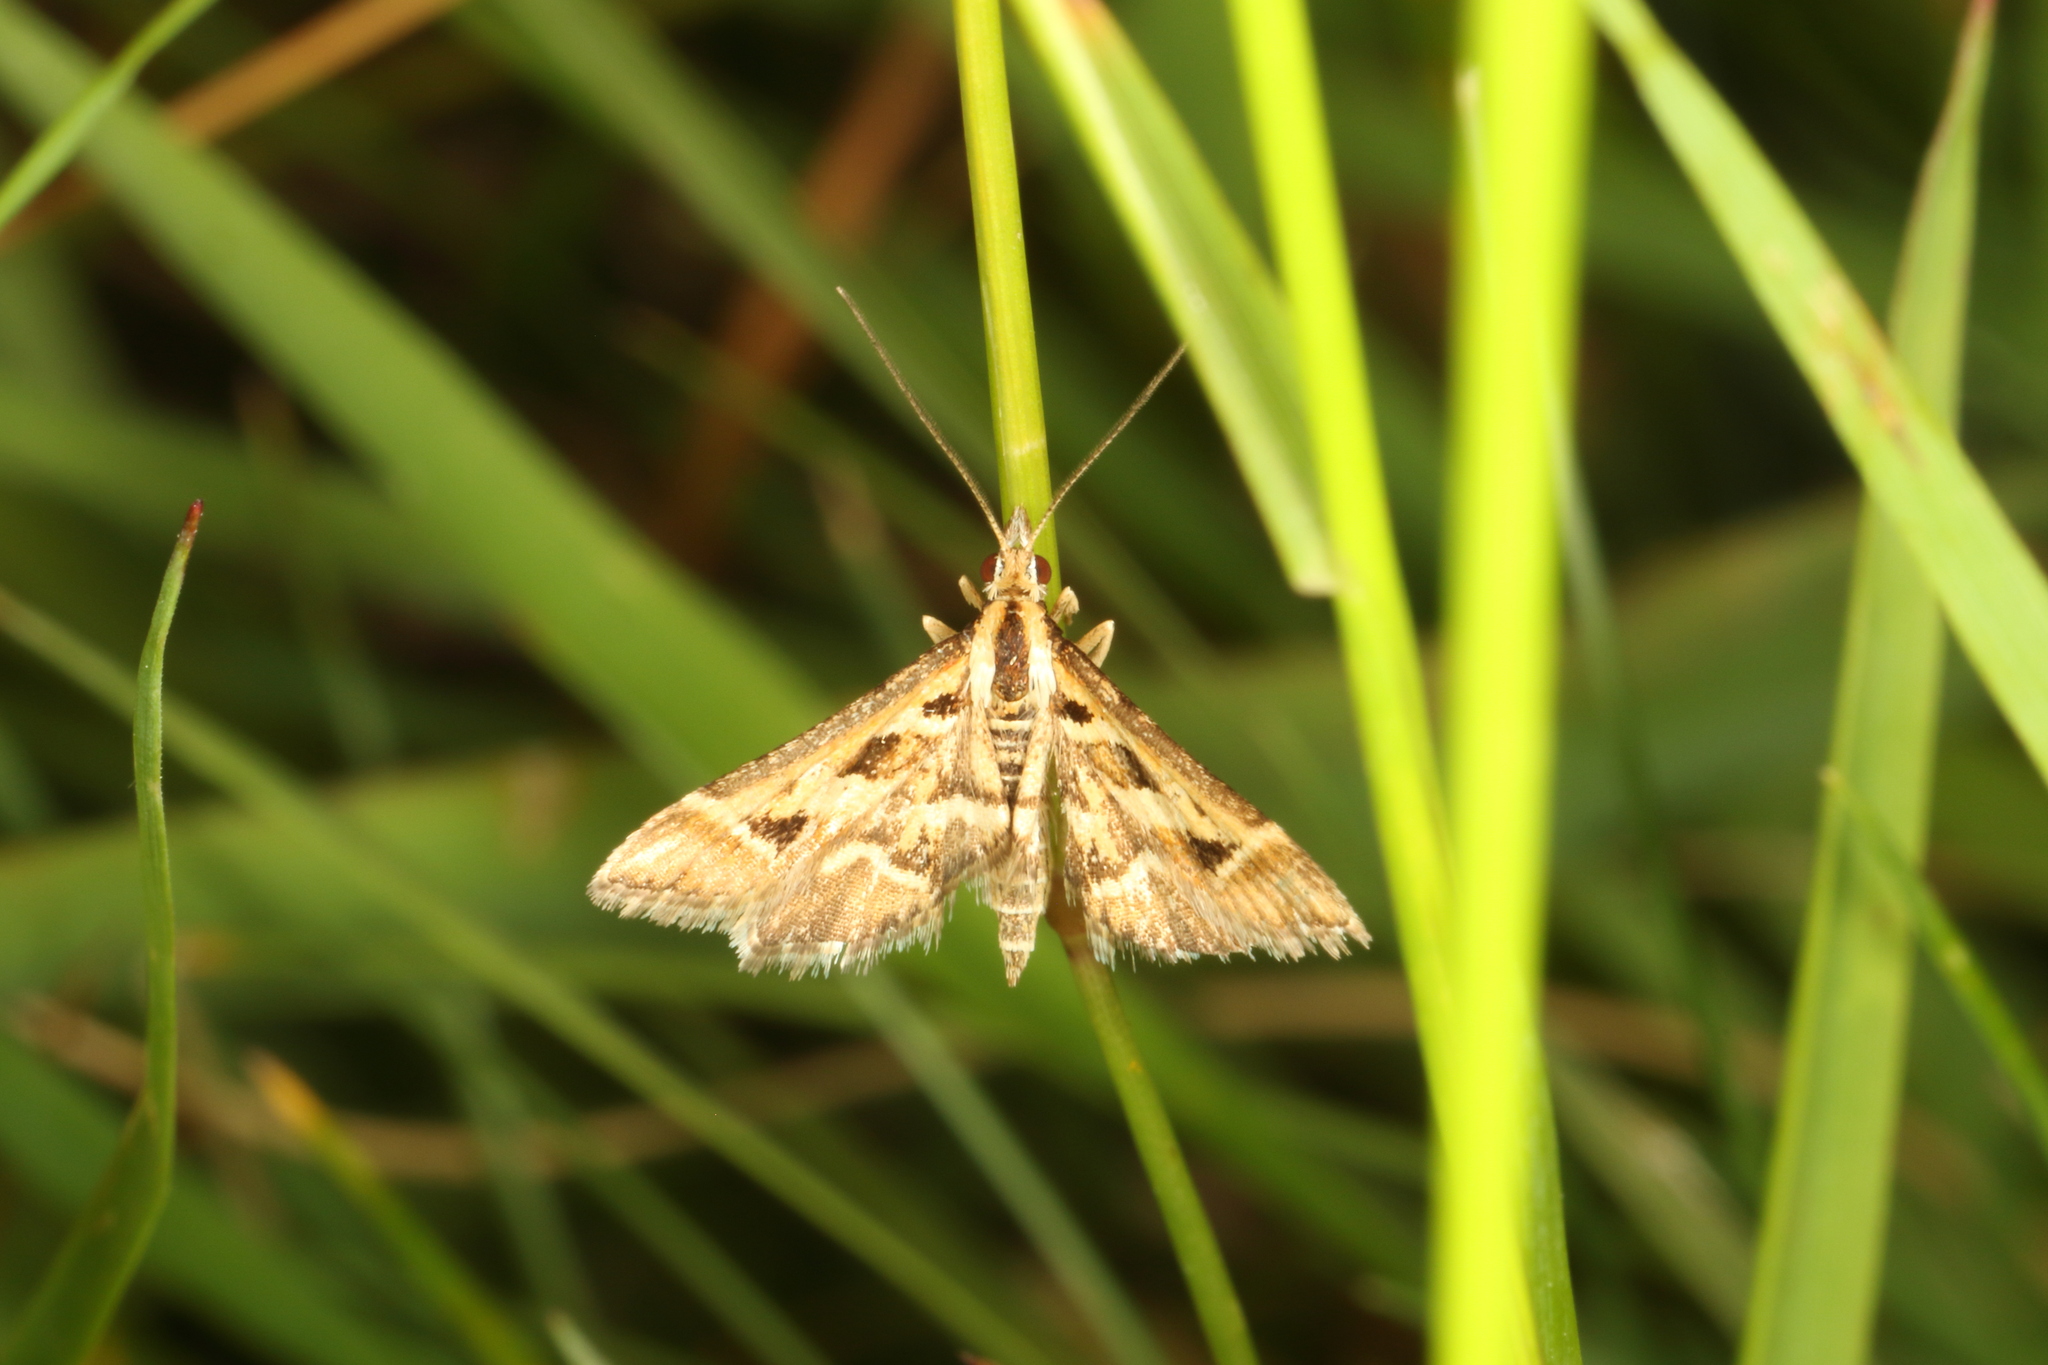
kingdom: Animalia
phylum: Arthropoda
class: Insecta
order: Lepidoptera
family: Crambidae
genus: Diasemia
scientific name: Diasemia grammalis
